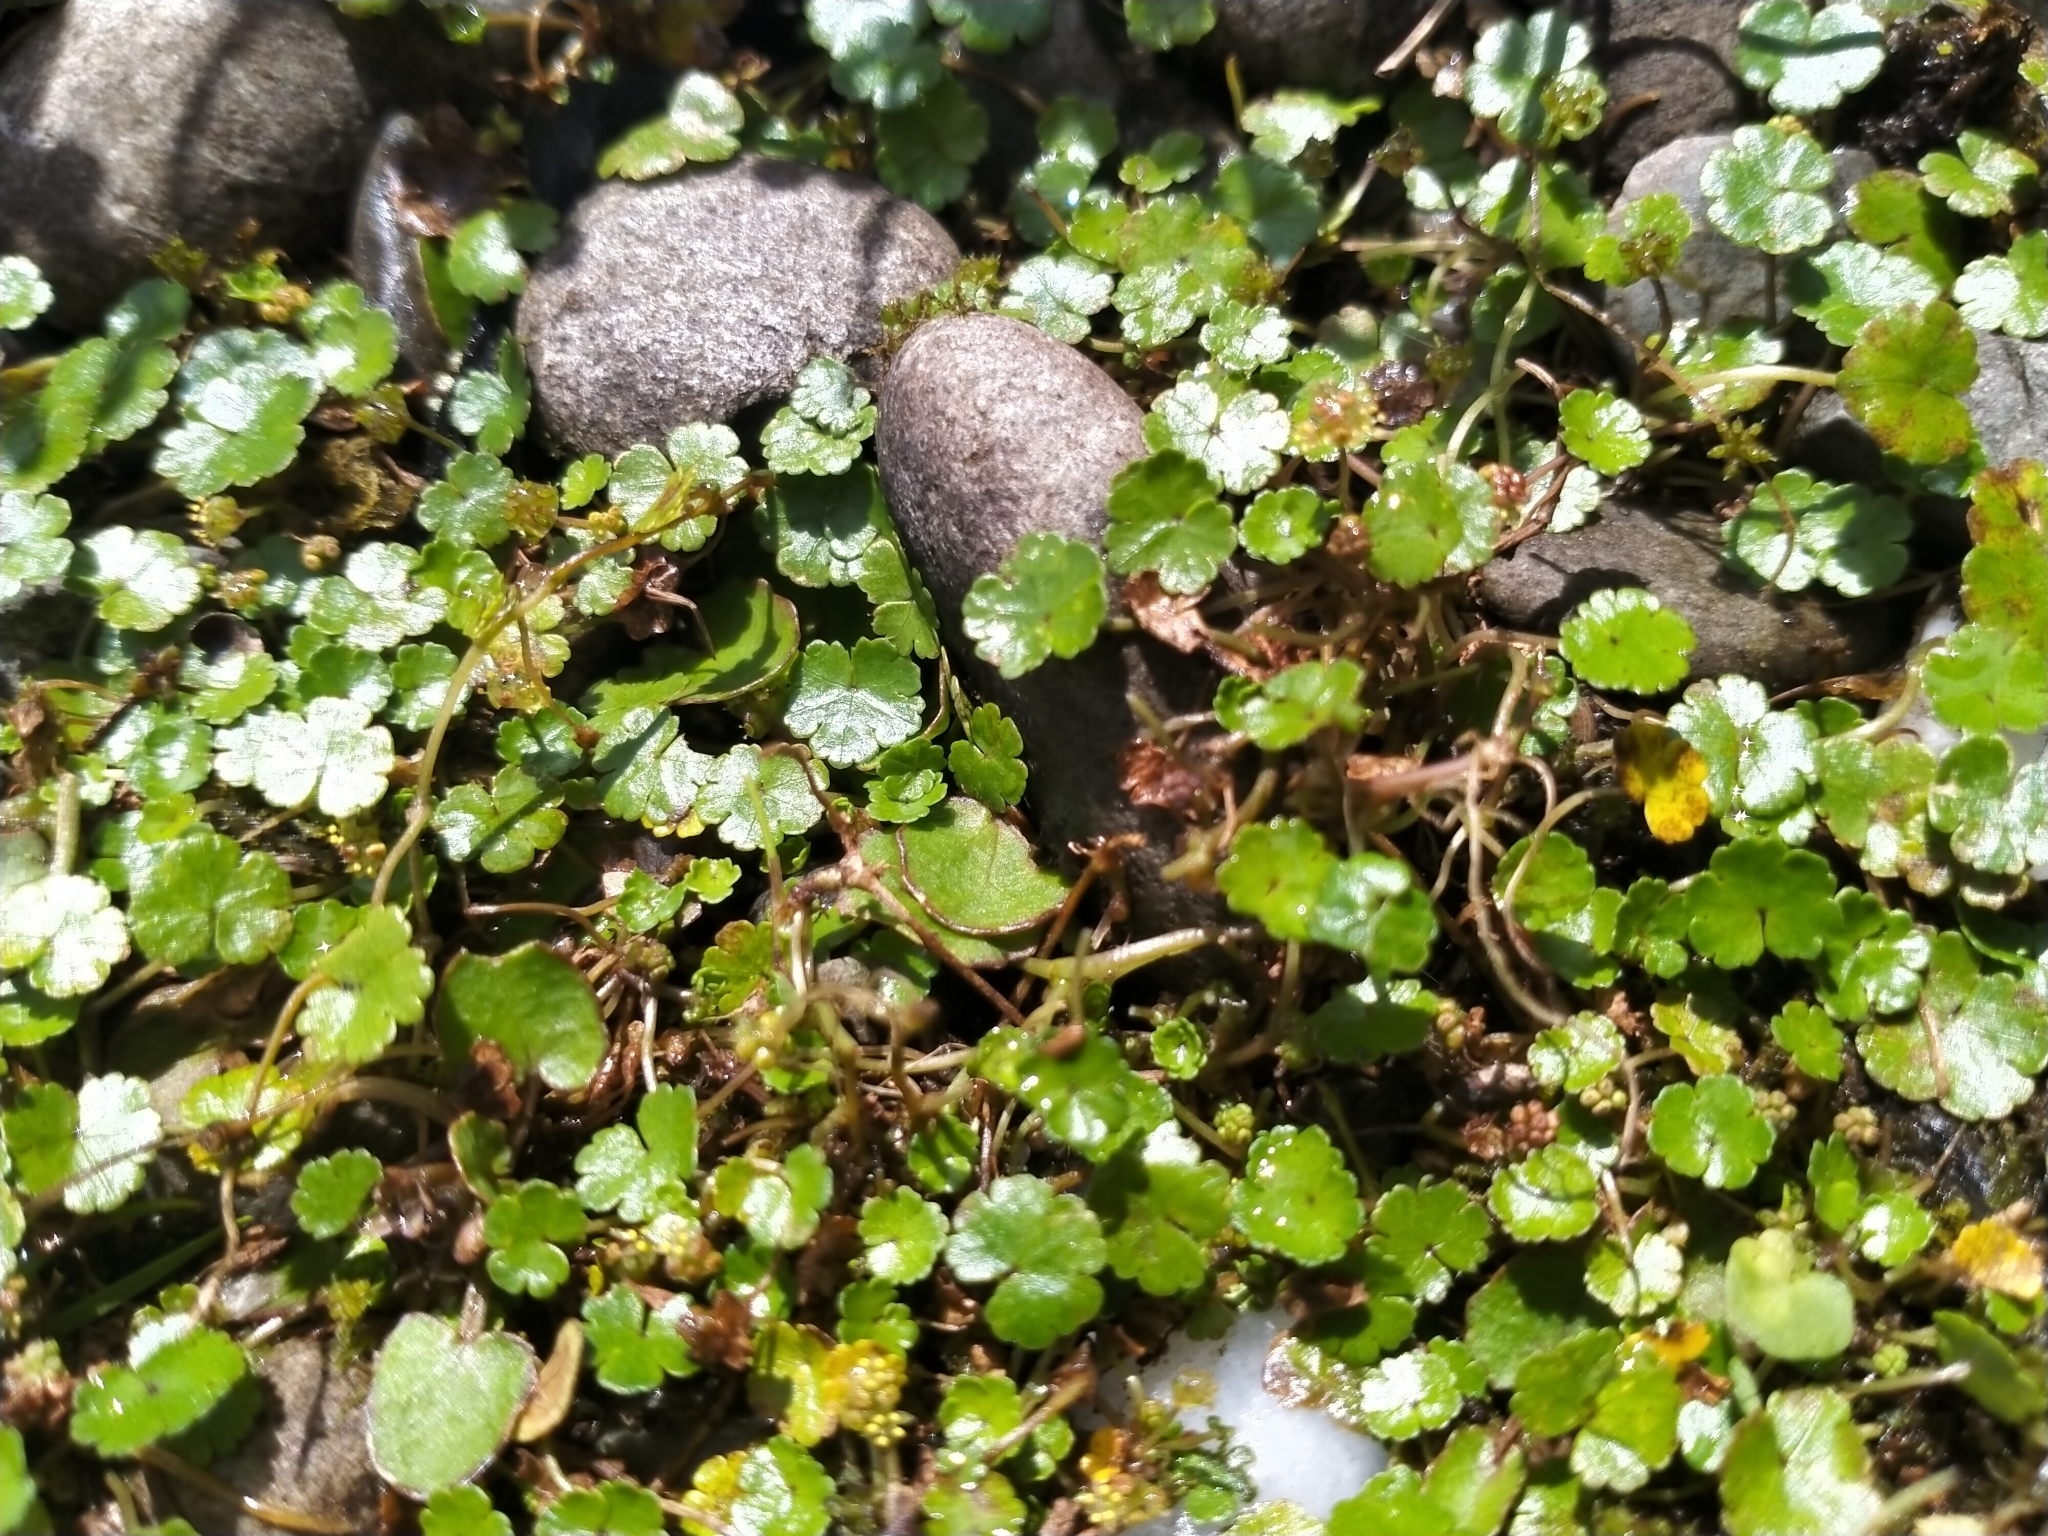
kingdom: Plantae
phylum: Tracheophyta
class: Magnoliopsida
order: Apiales
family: Araliaceae
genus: Hydrocotyle
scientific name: Hydrocotyle novae-zeelandiae
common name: New zealand pennywort
